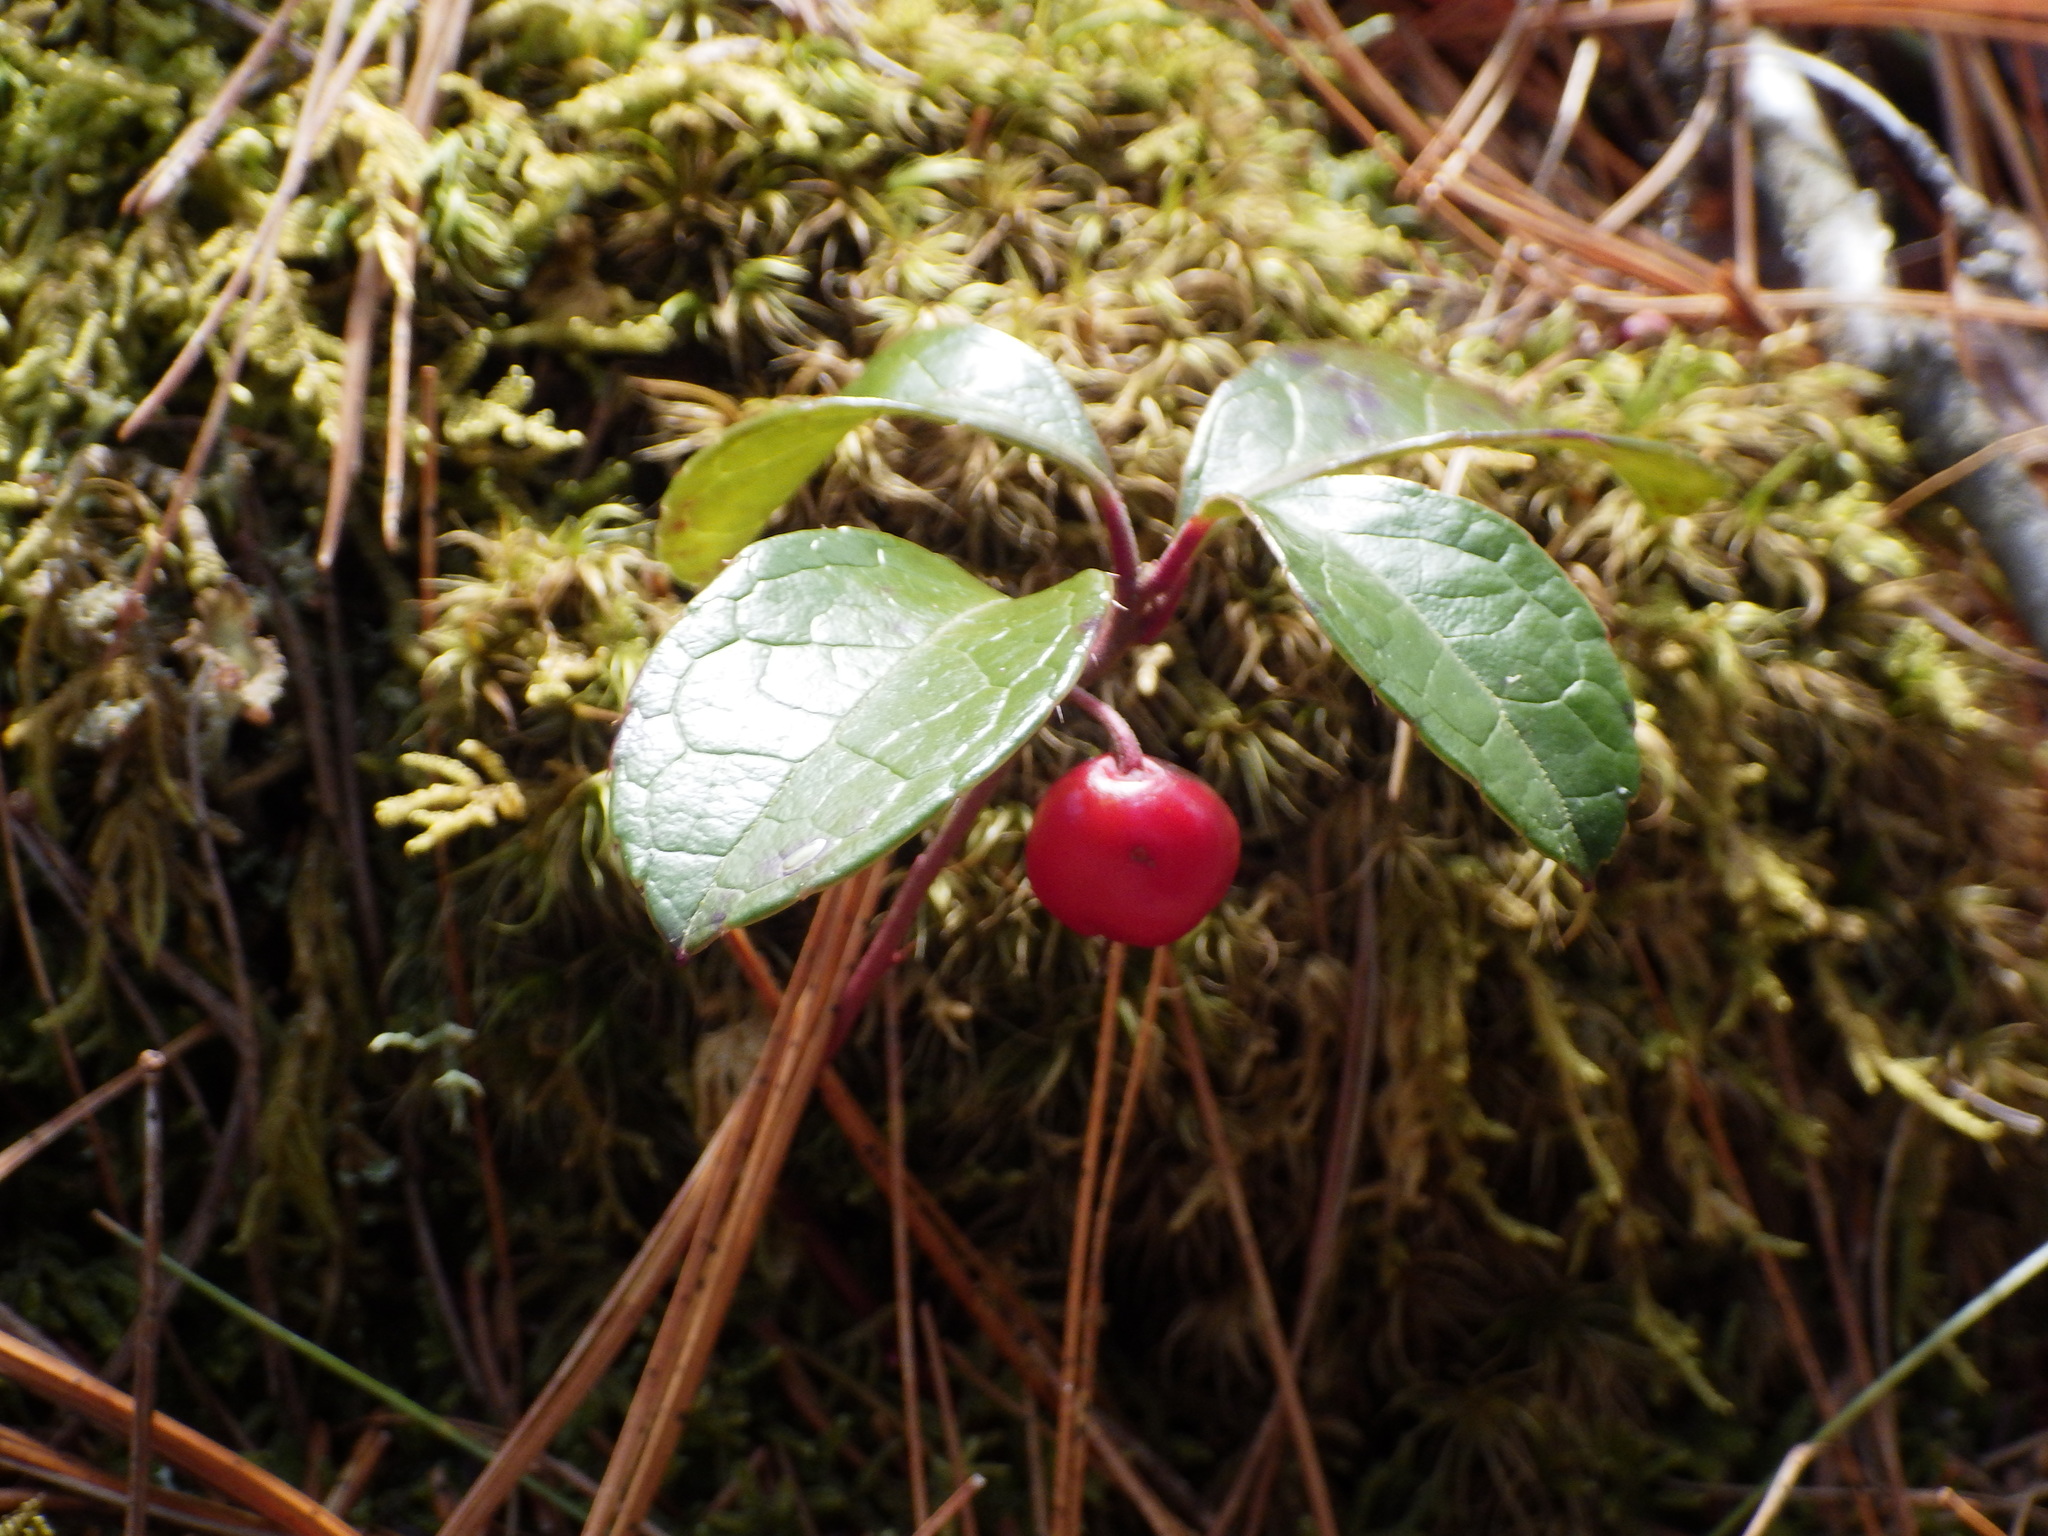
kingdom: Plantae
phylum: Tracheophyta
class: Magnoliopsida
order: Ericales
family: Ericaceae
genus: Gaultheria
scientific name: Gaultheria procumbens
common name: Checkerberry
